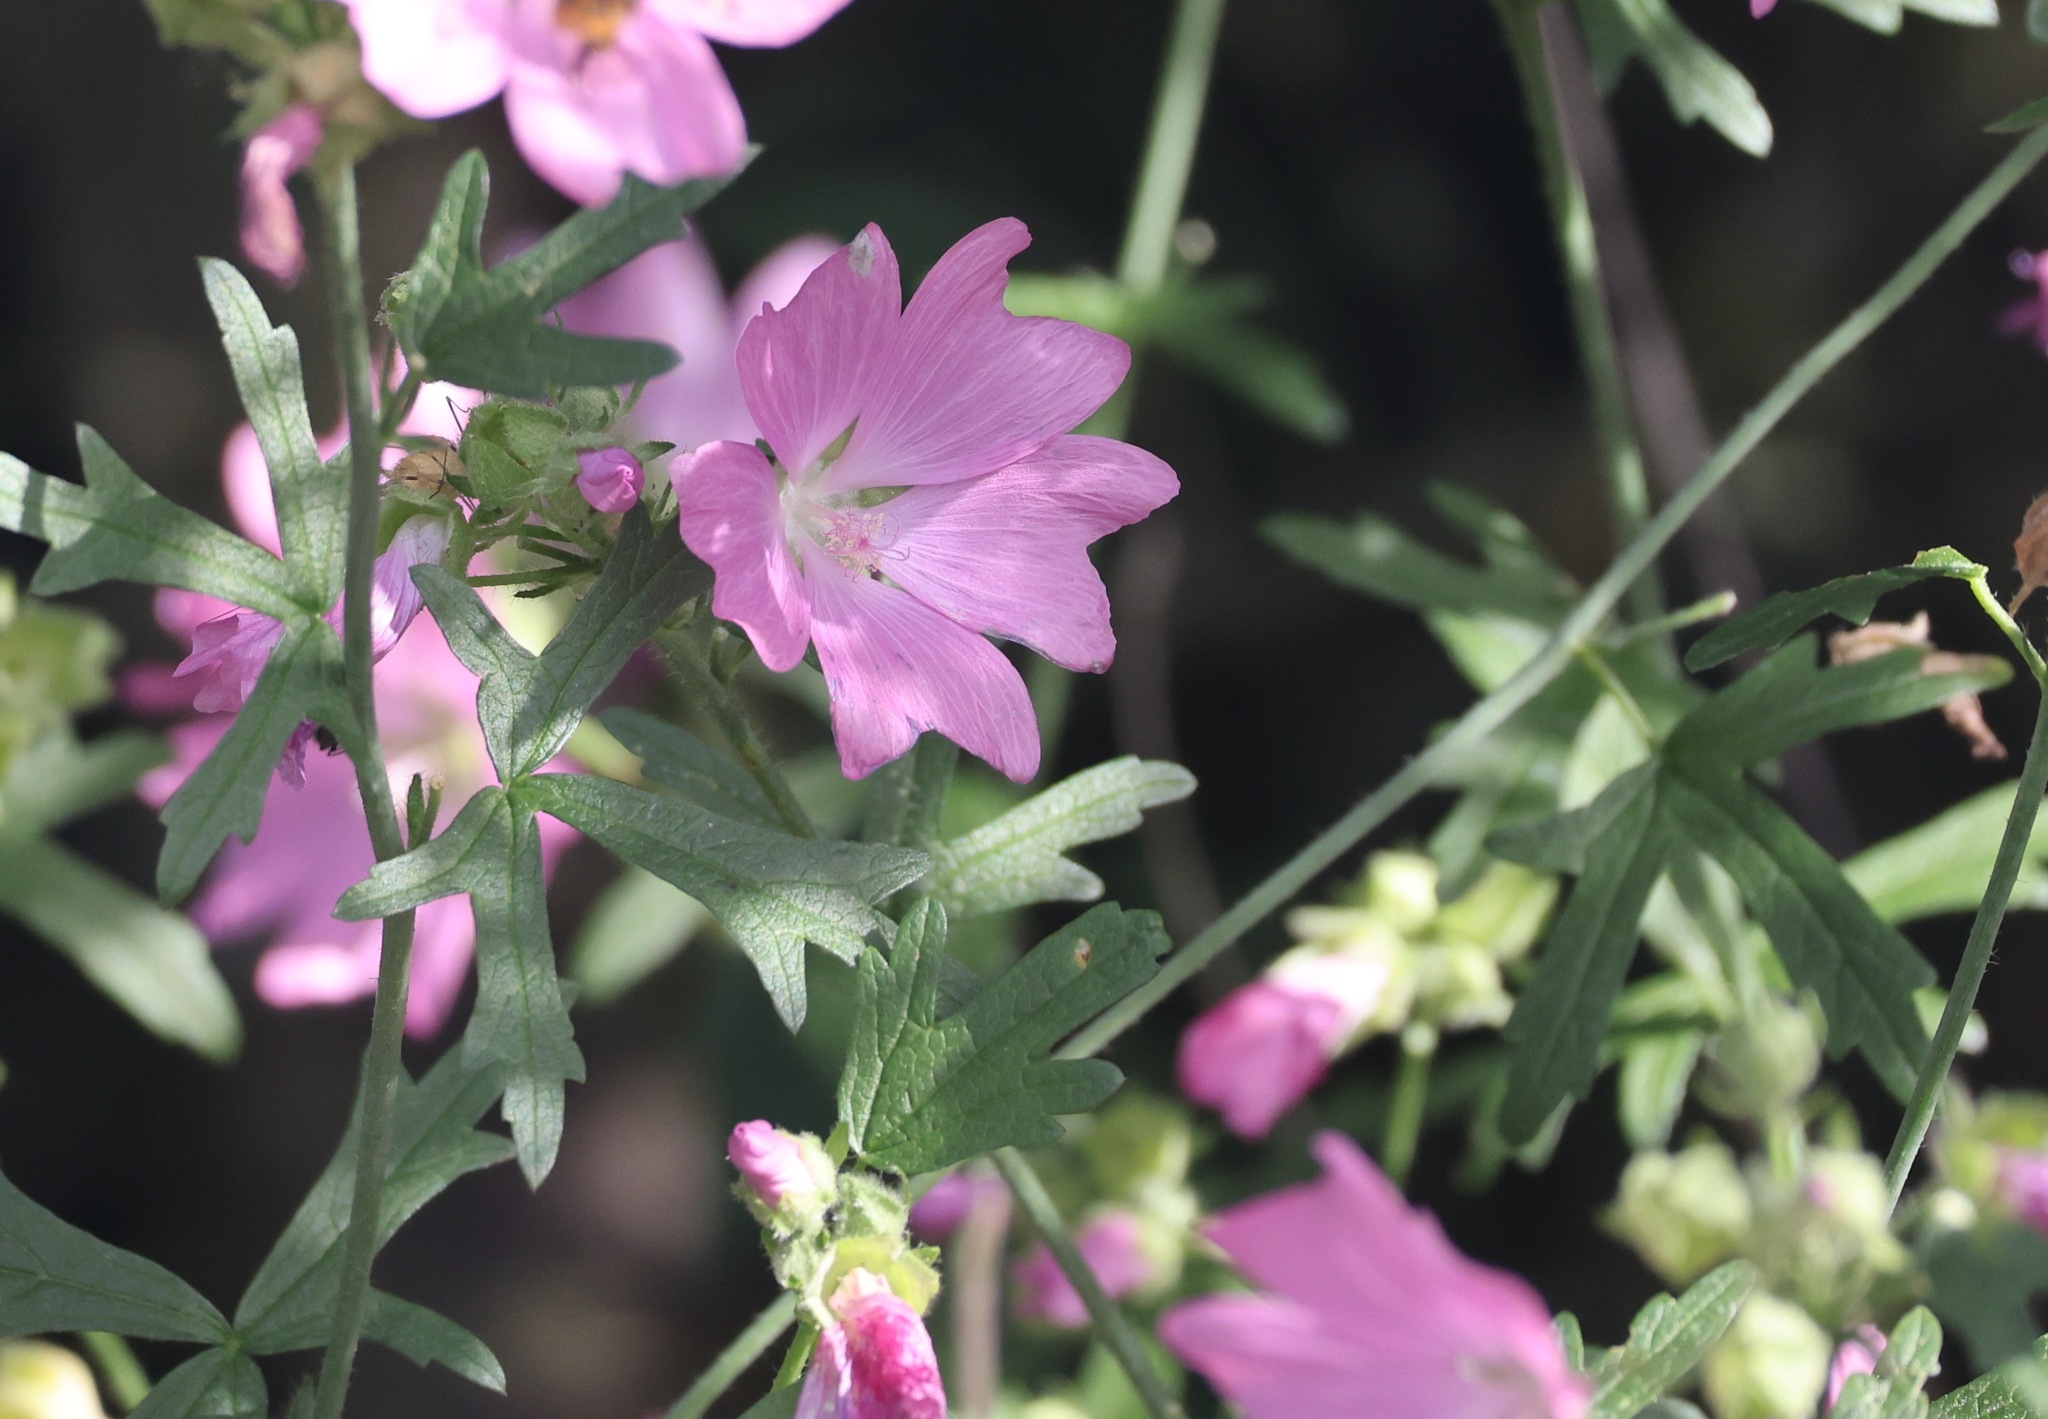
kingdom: Plantae
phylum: Tracheophyta
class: Magnoliopsida
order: Malvales
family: Malvaceae
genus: Malva
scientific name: Malva moschata
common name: Musk mallow
